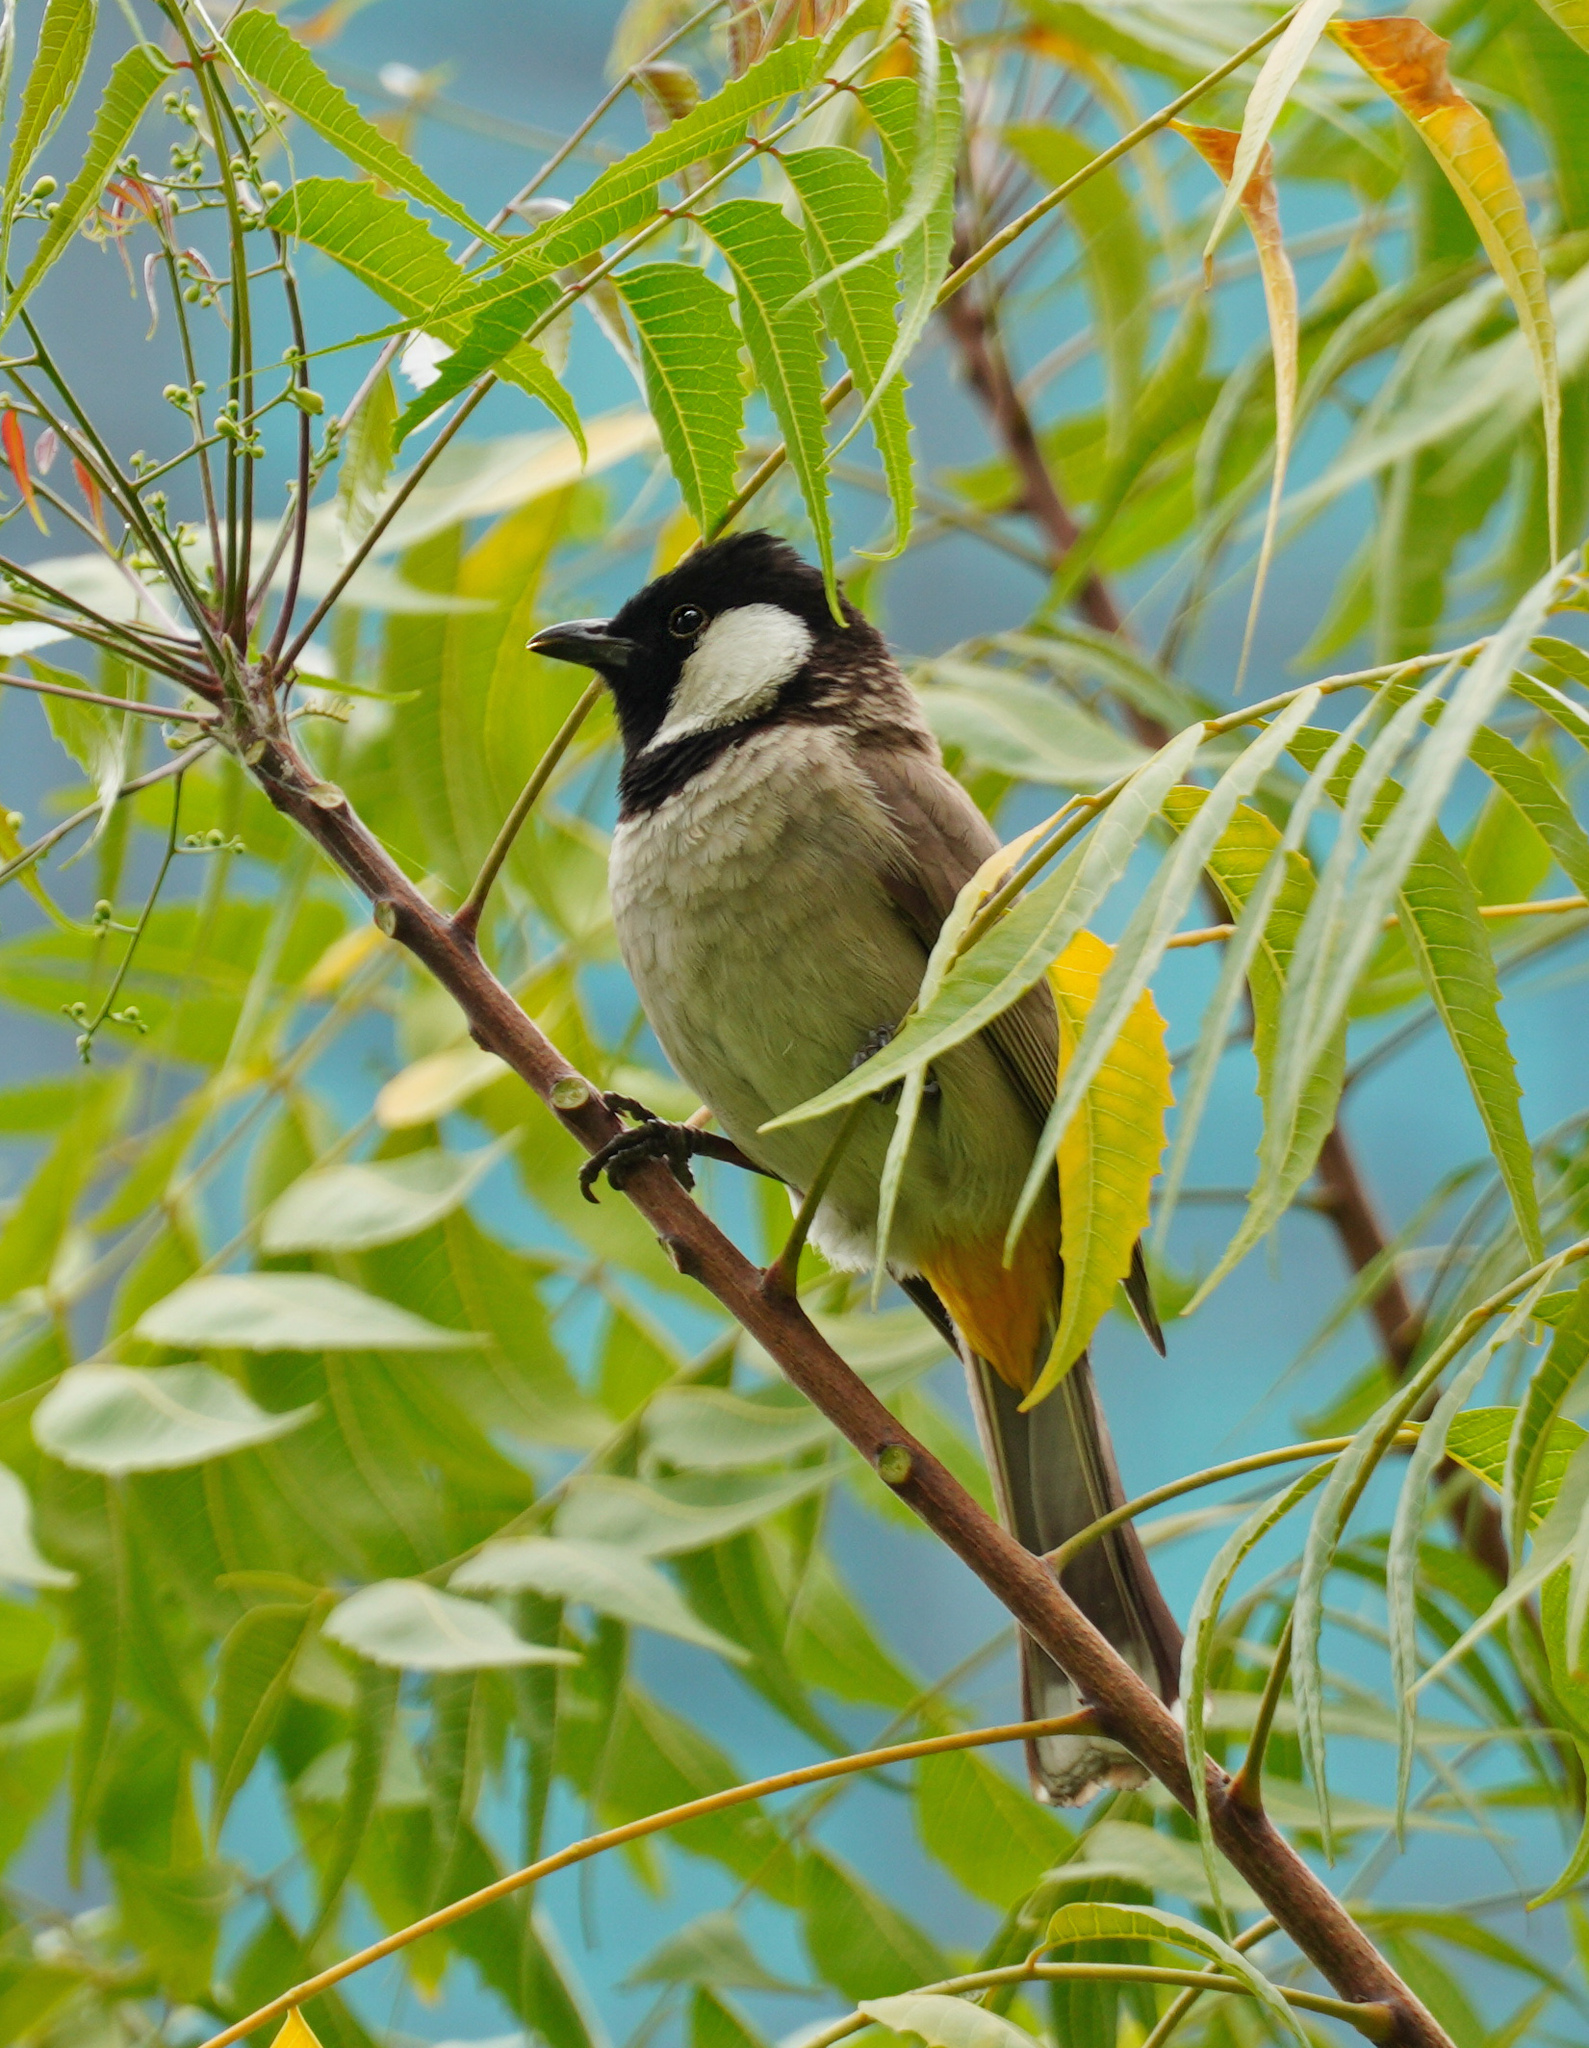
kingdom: Animalia
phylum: Chordata
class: Aves
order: Passeriformes
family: Pycnonotidae
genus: Pycnonotus
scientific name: Pycnonotus leucotis
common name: White-eared bulbul
